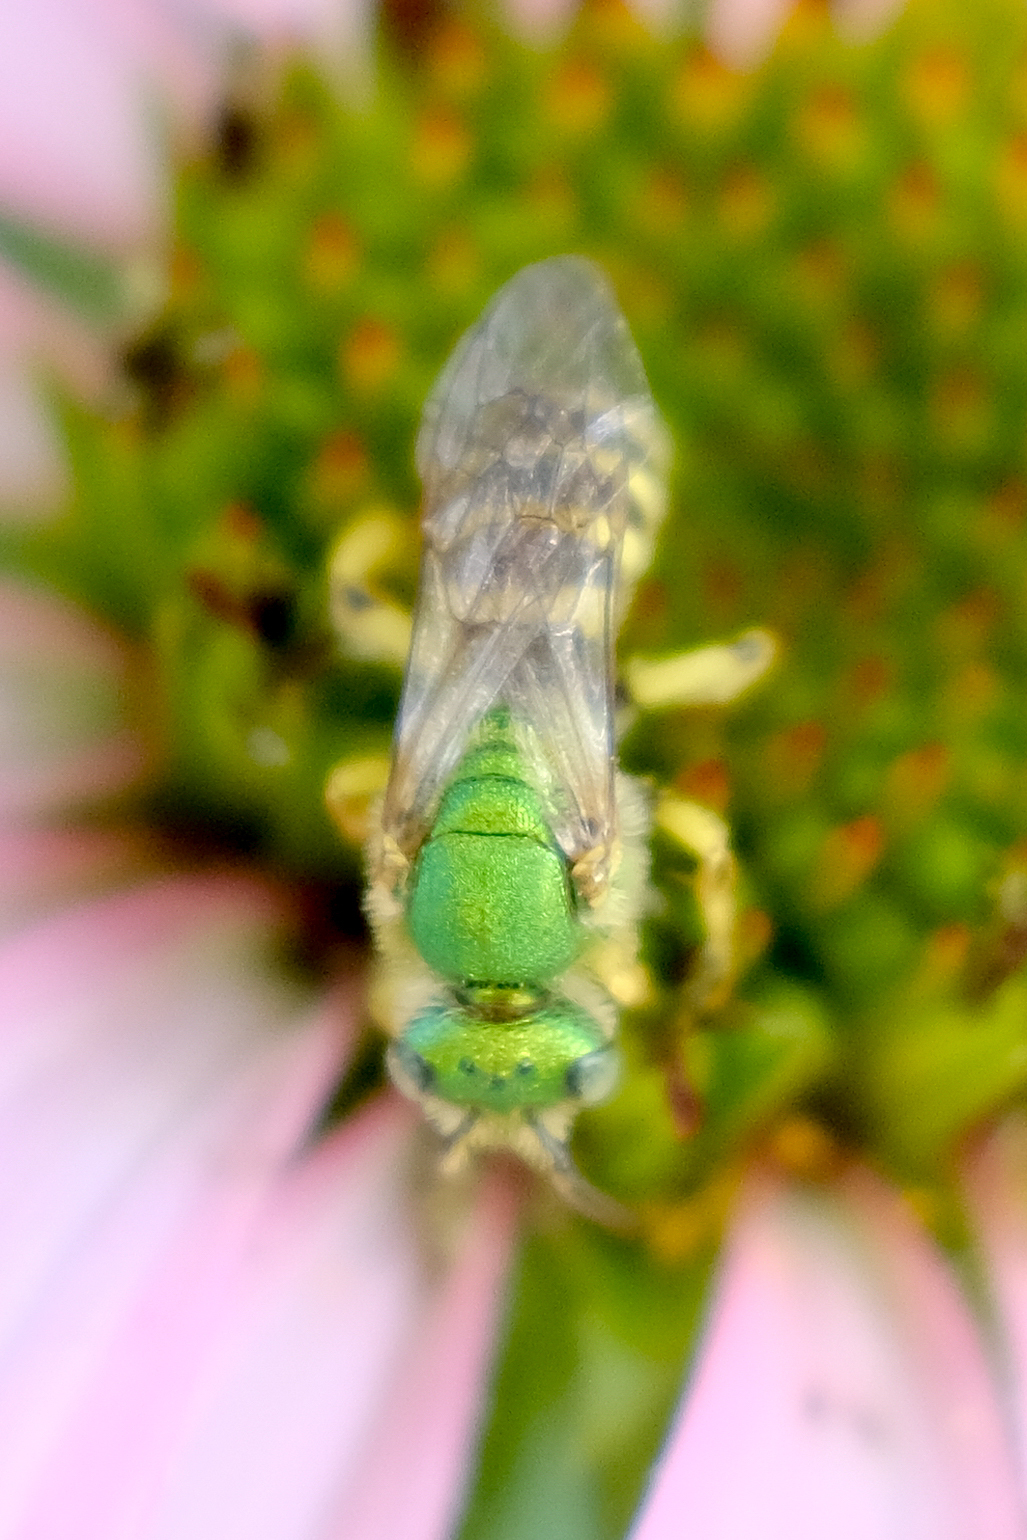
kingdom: Animalia
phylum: Arthropoda
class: Insecta
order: Hymenoptera
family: Halictidae
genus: Agapostemon
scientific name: Agapostemon
